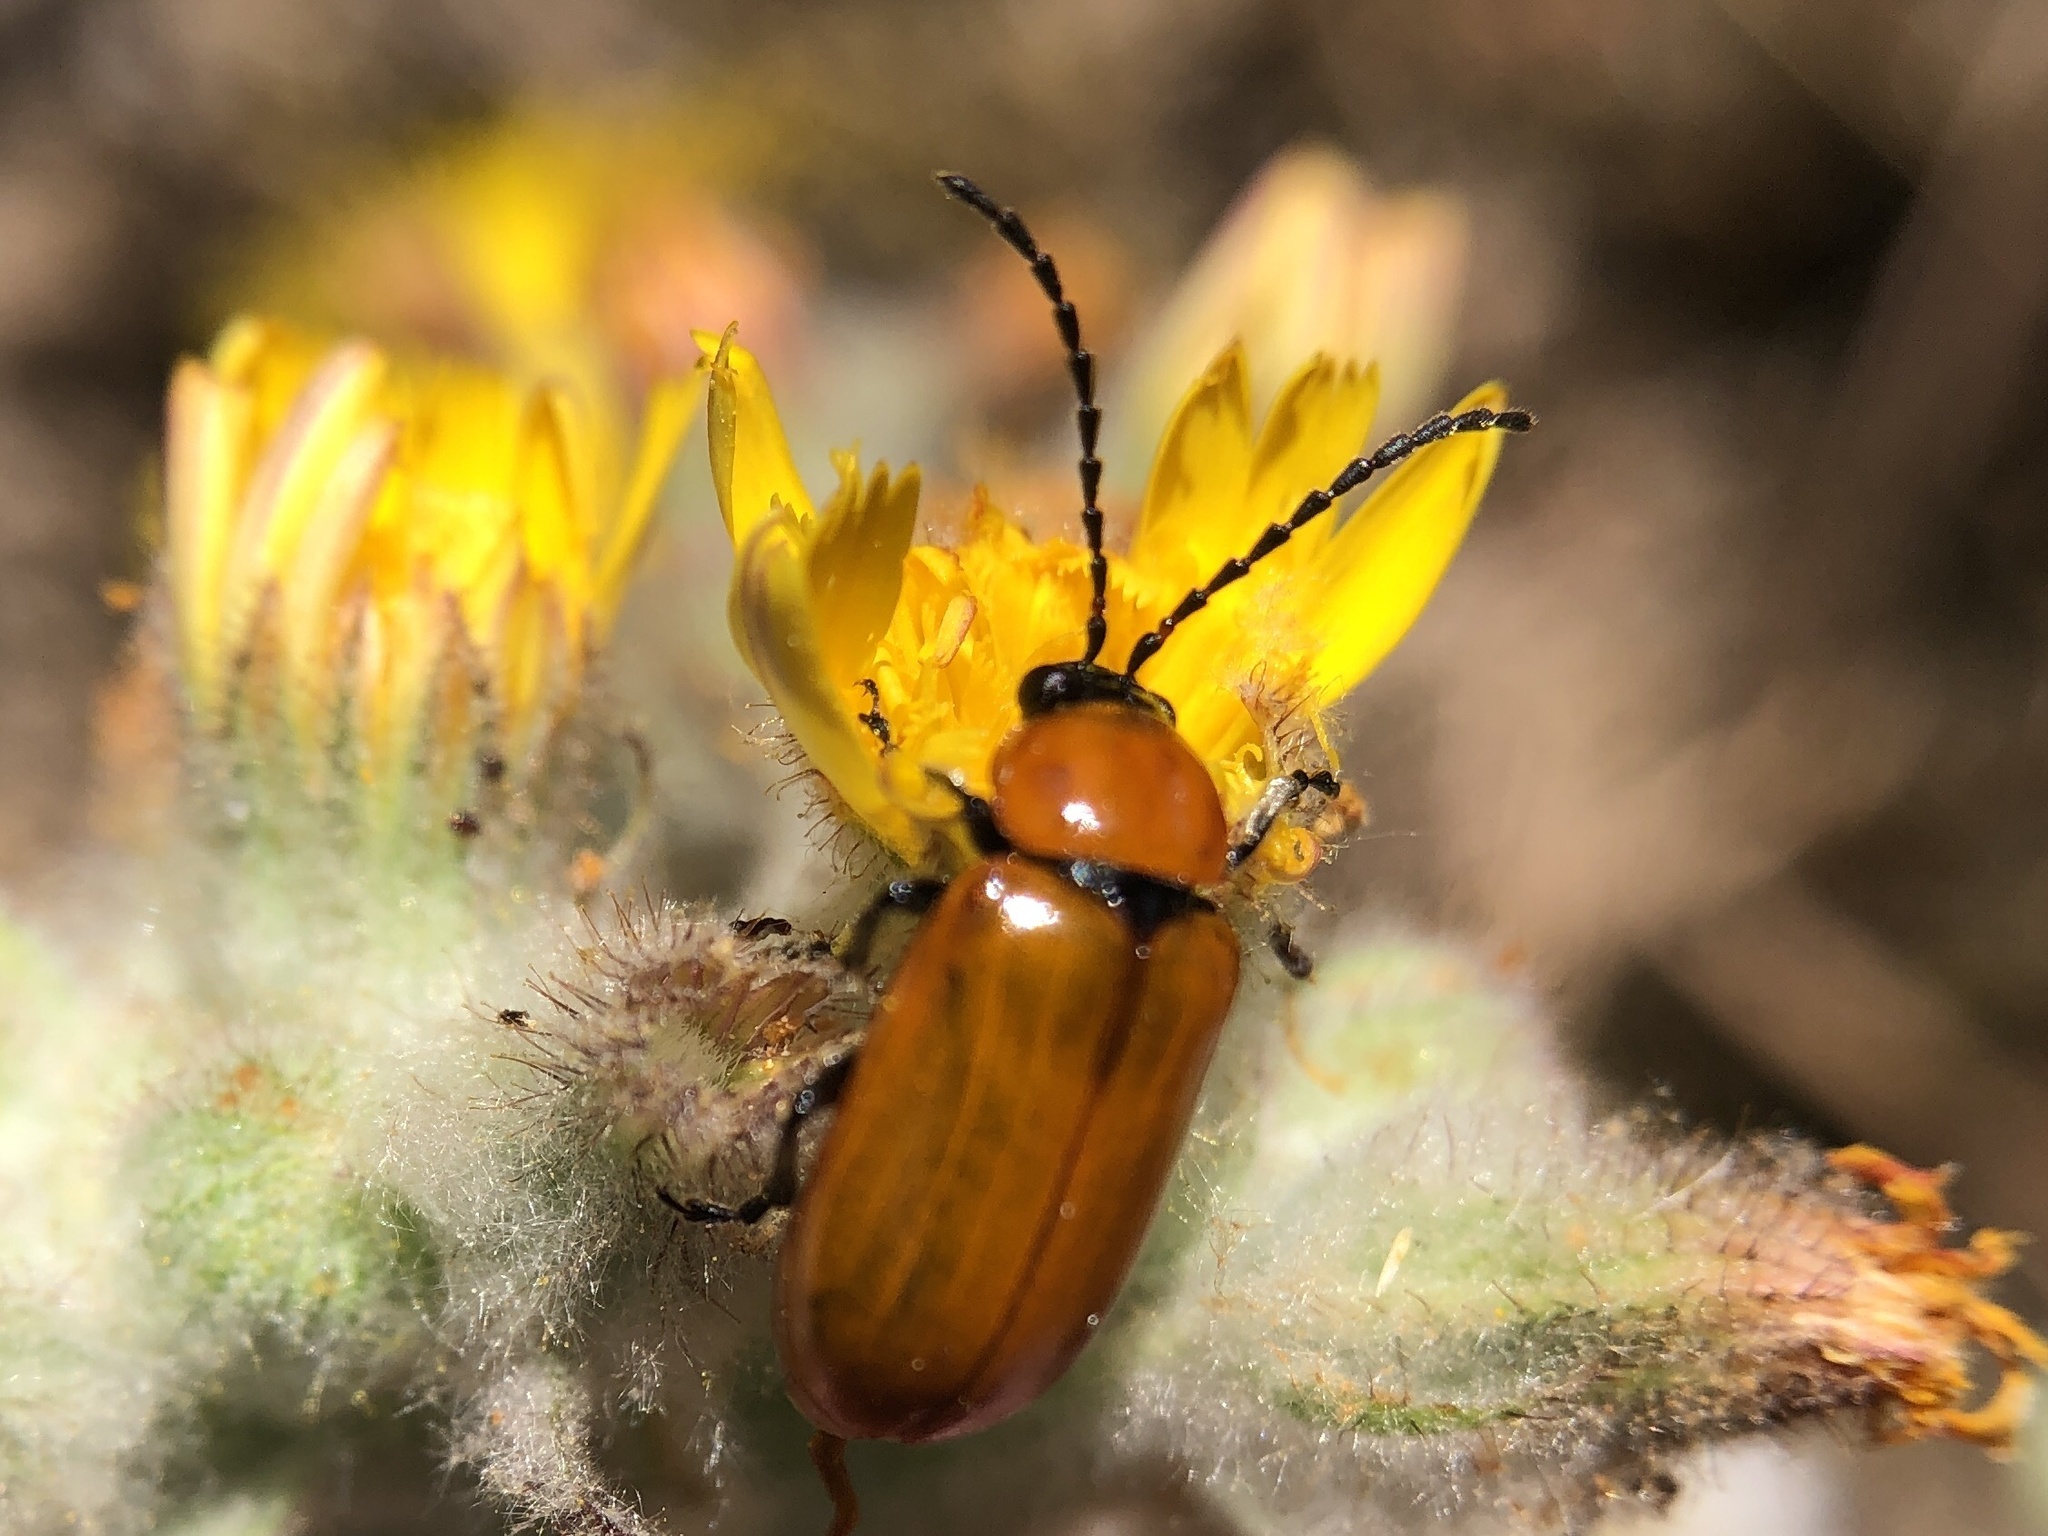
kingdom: Animalia
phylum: Arthropoda
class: Insecta
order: Coleoptera
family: Chrysomelidae
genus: Exosoma
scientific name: Exosoma lusitanicum
